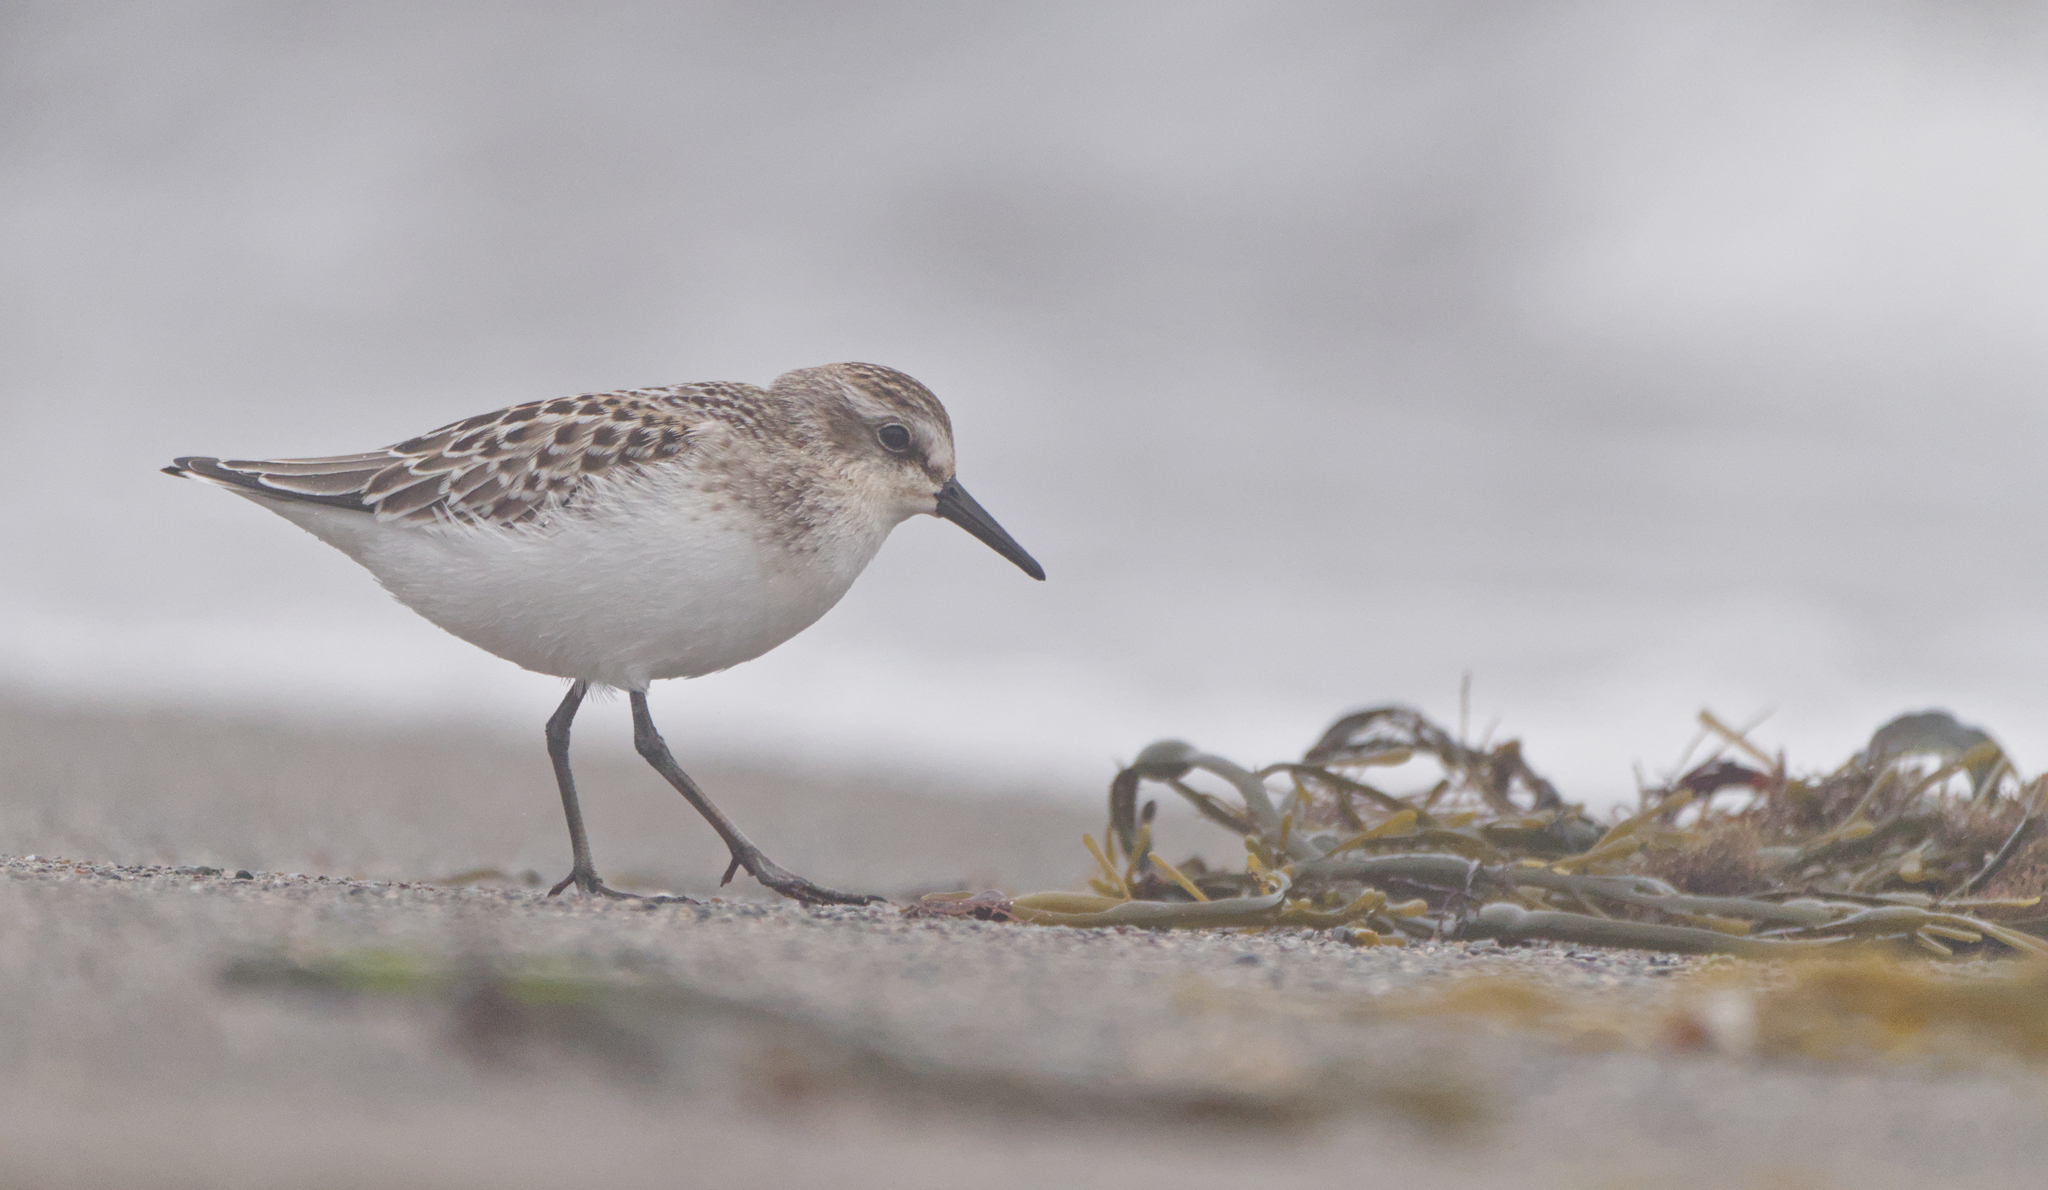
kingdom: Animalia
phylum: Chordata
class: Aves
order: Charadriiformes
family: Scolopacidae
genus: Calidris
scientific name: Calidris pusilla
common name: Semipalmated sandpiper
